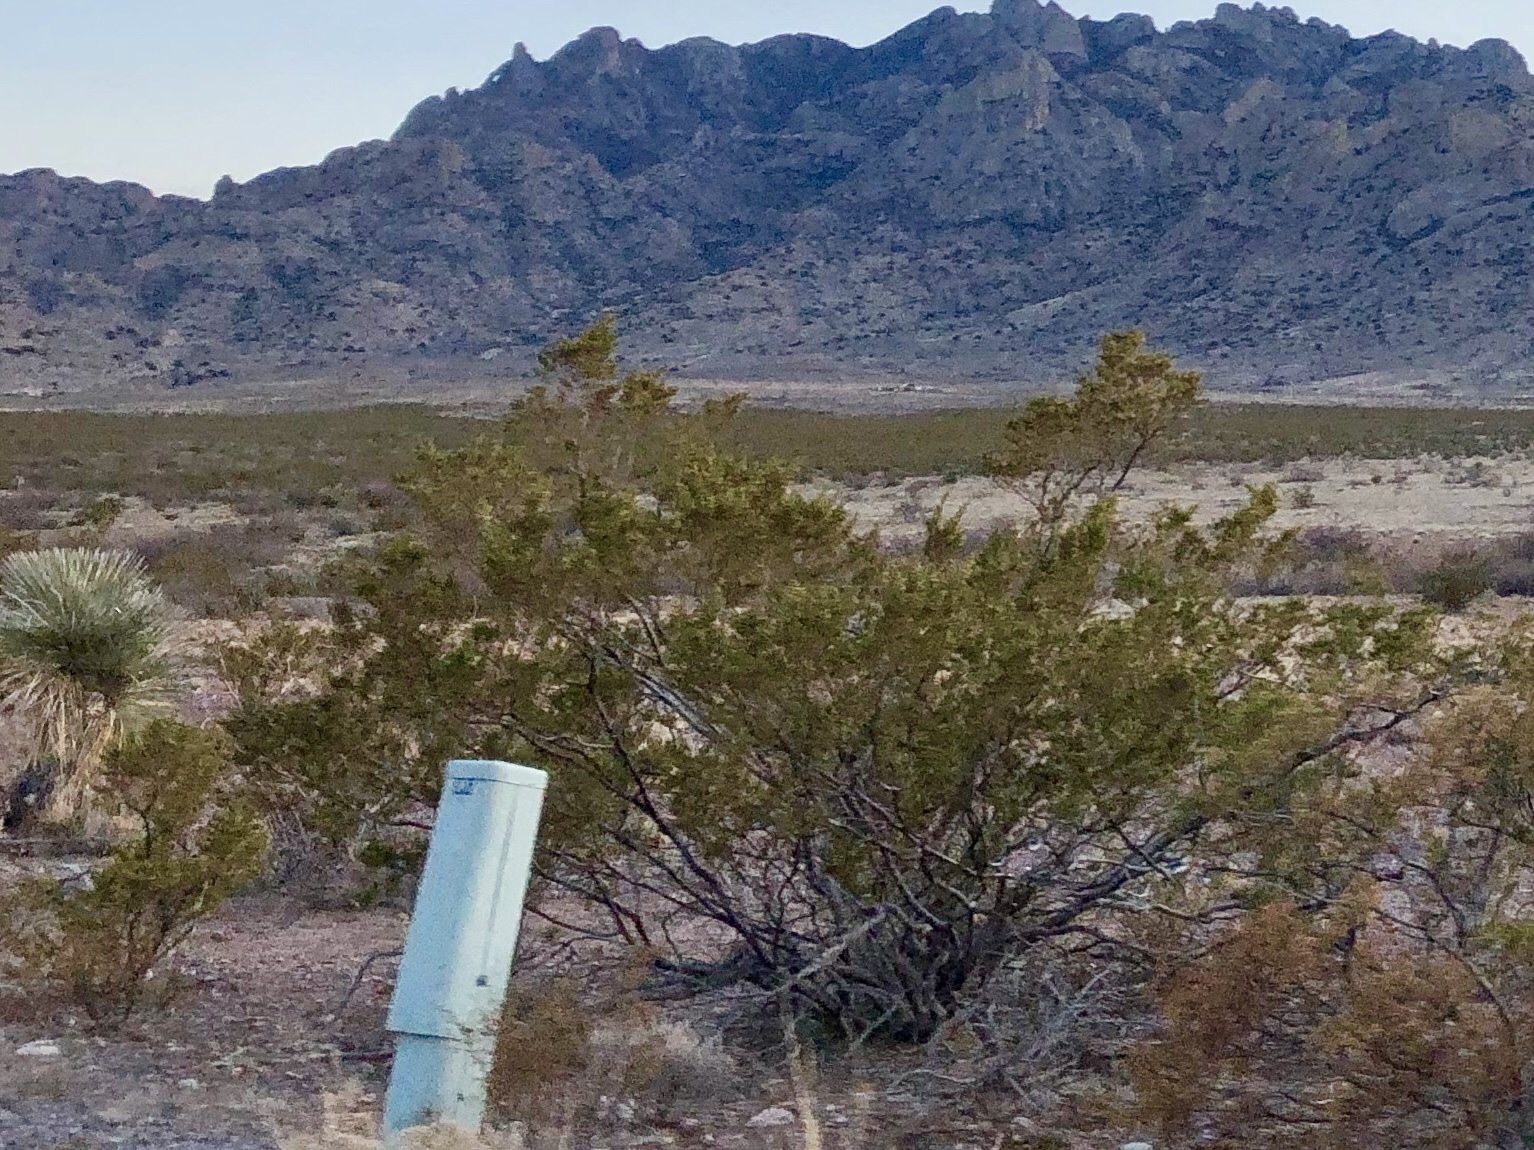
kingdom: Plantae
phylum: Tracheophyta
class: Magnoliopsida
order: Zygophyllales
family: Zygophyllaceae
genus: Larrea
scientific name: Larrea tridentata
